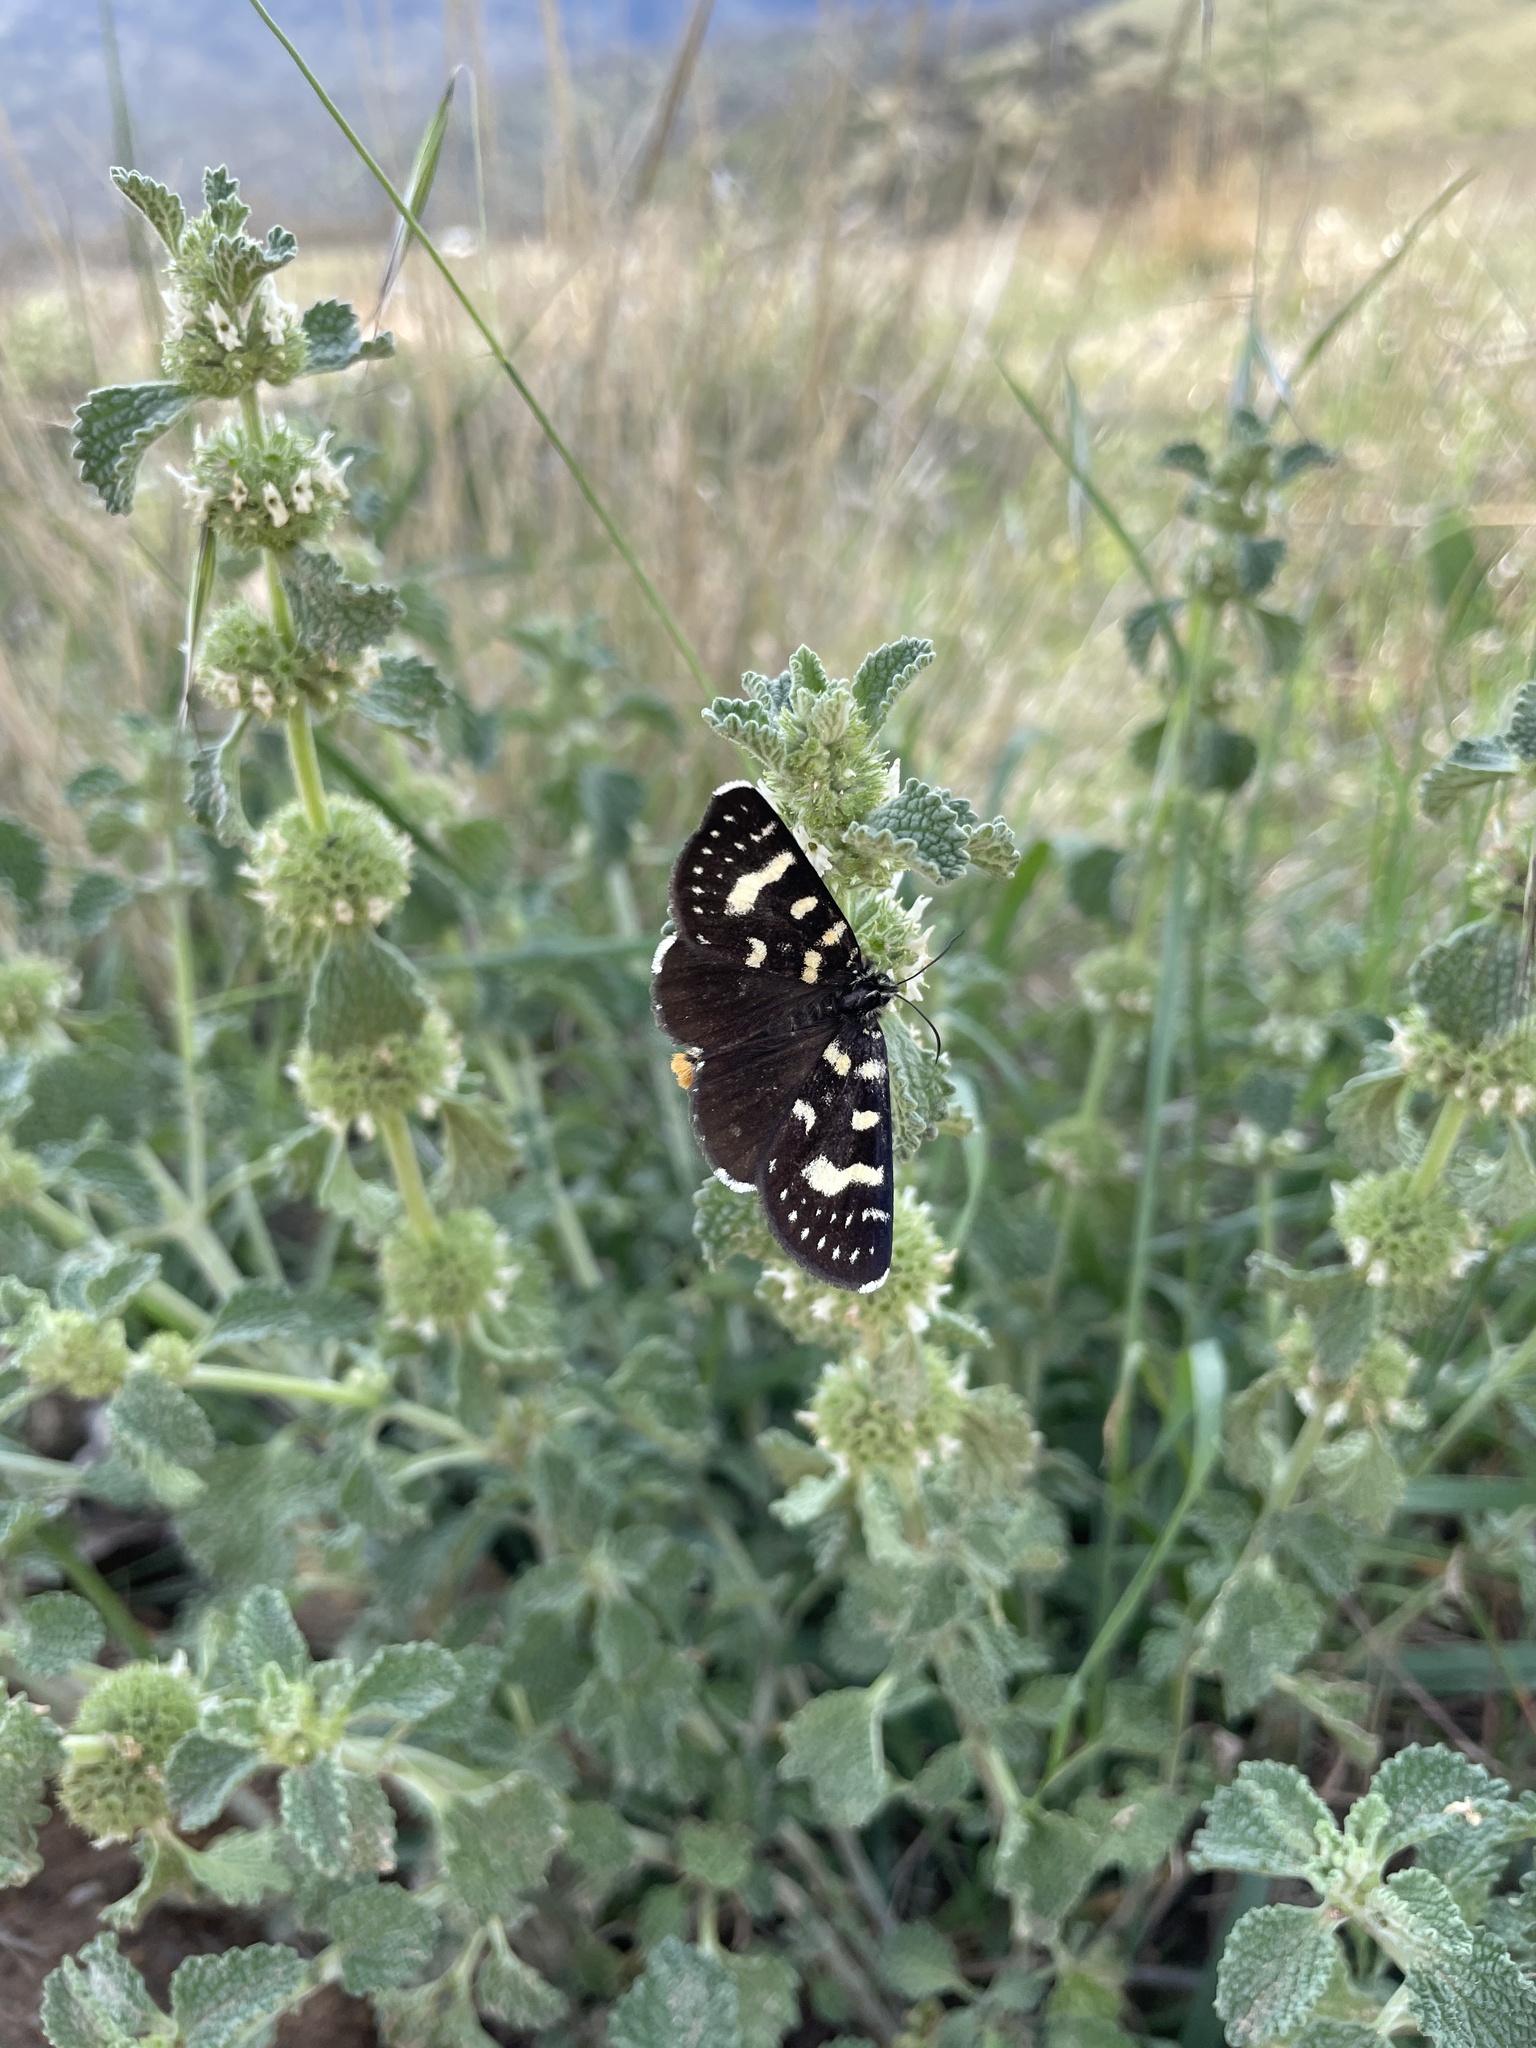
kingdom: Animalia
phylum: Arthropoda
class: Insecta
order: Lepidoptera
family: Noctuidae
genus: Phalaenoides
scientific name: Phalaenoides tristifica
